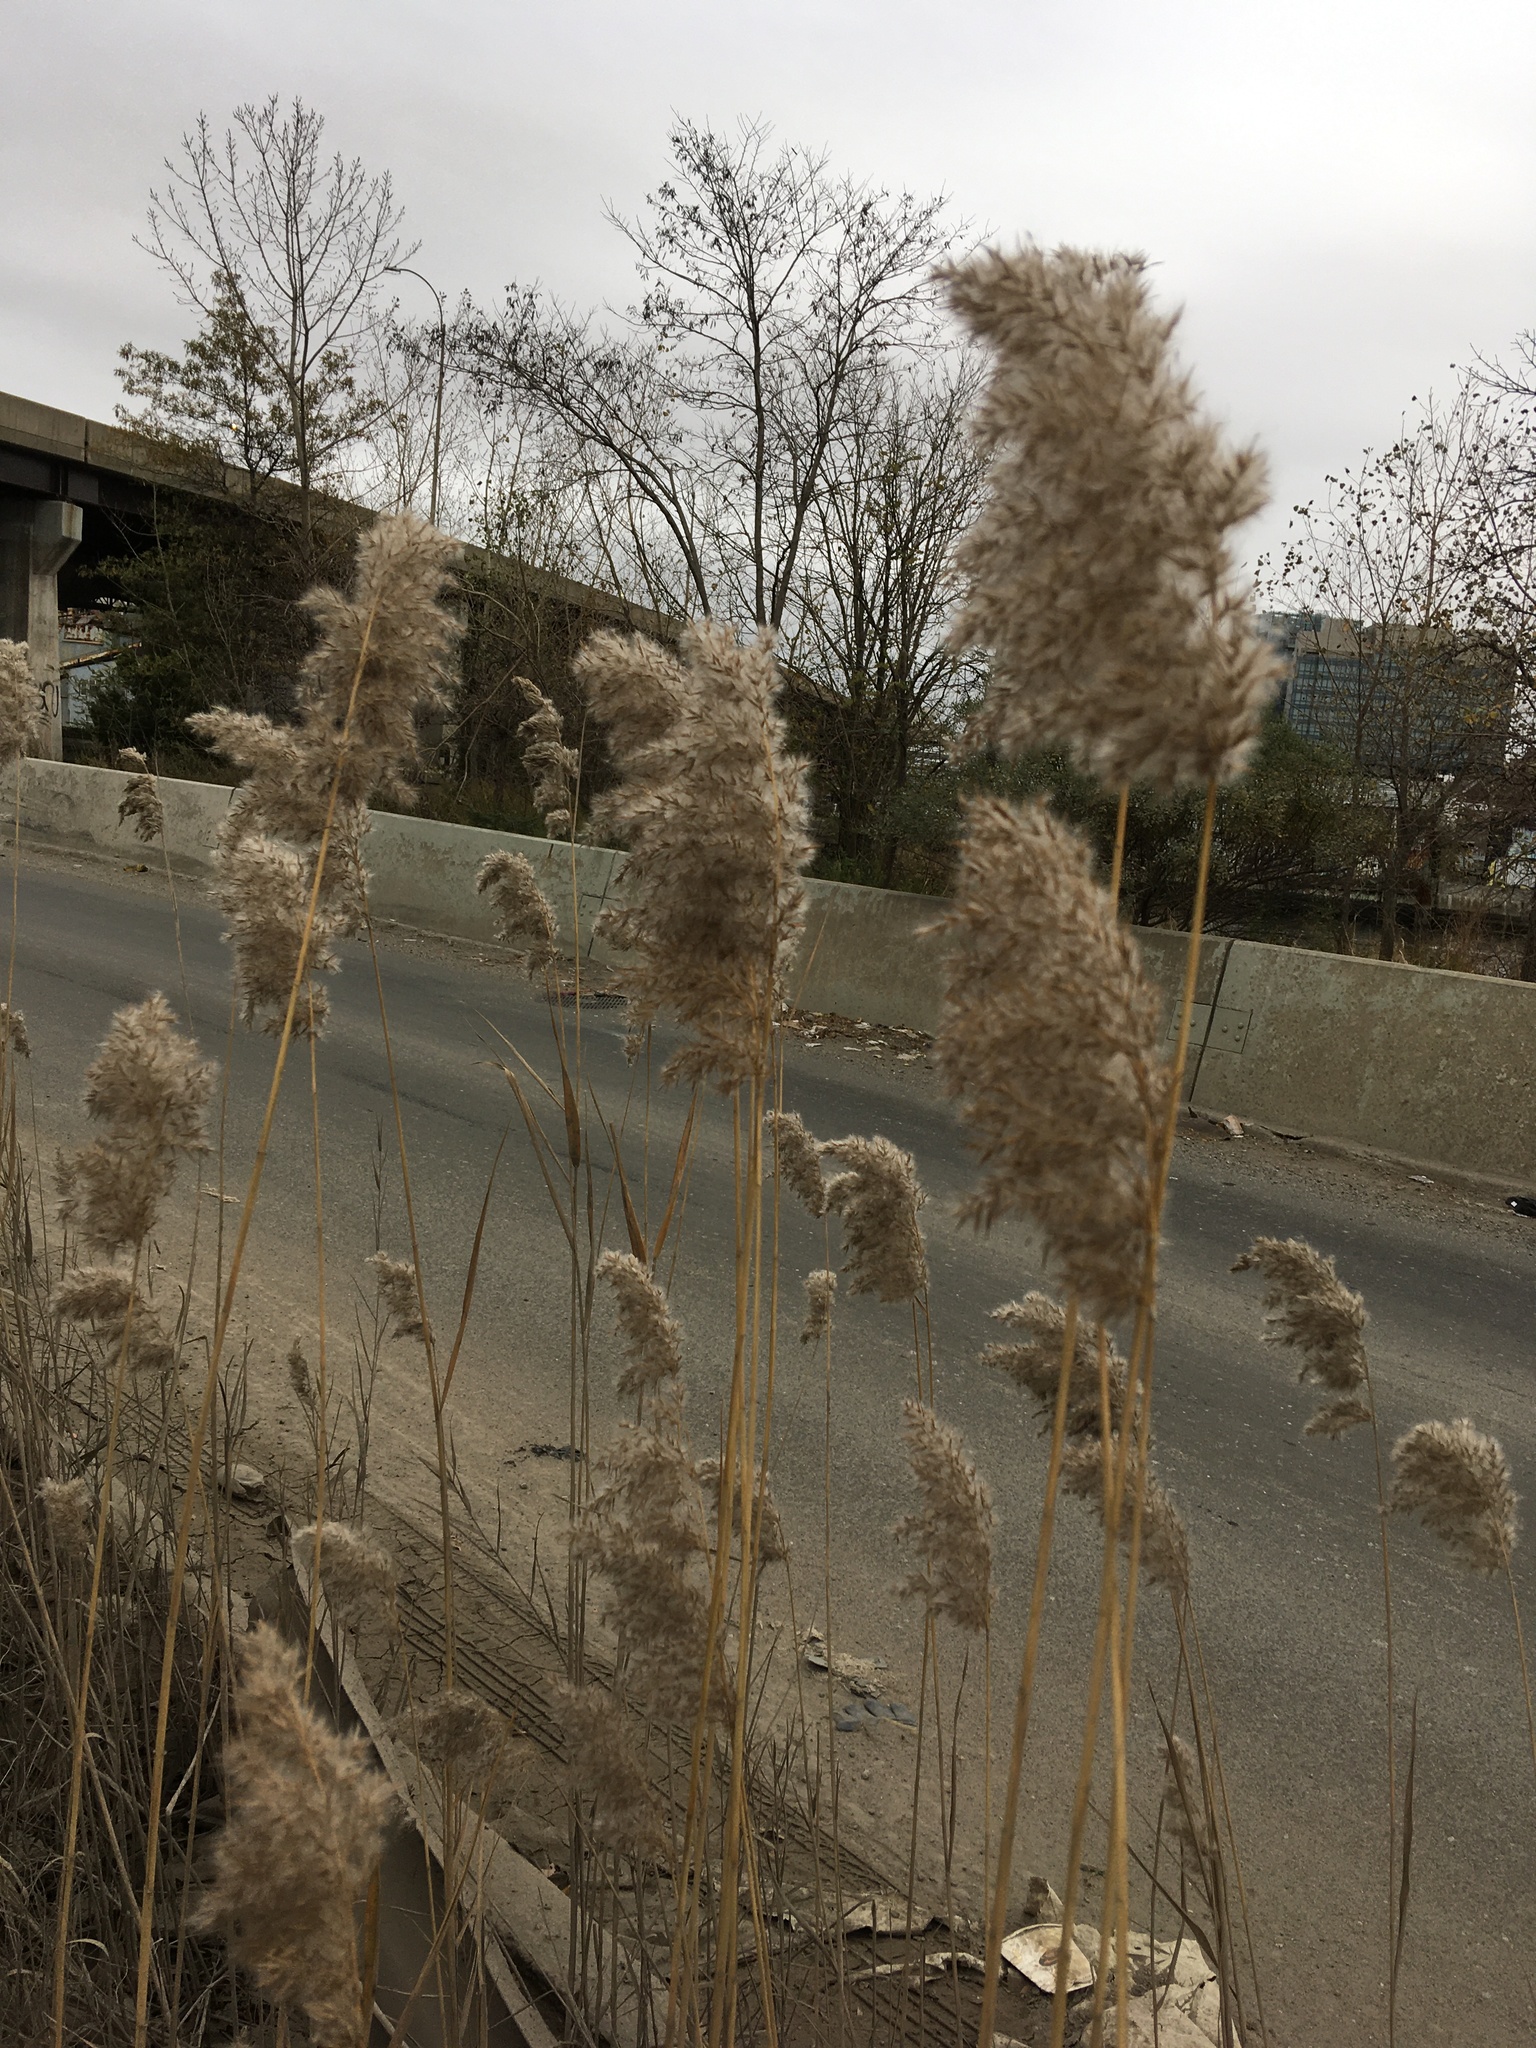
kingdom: Plantae
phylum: Tracheophyta
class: Liliopsida
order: Poales
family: Poaceae
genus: Phragmites
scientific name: Phragmites australis
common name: Common reed
